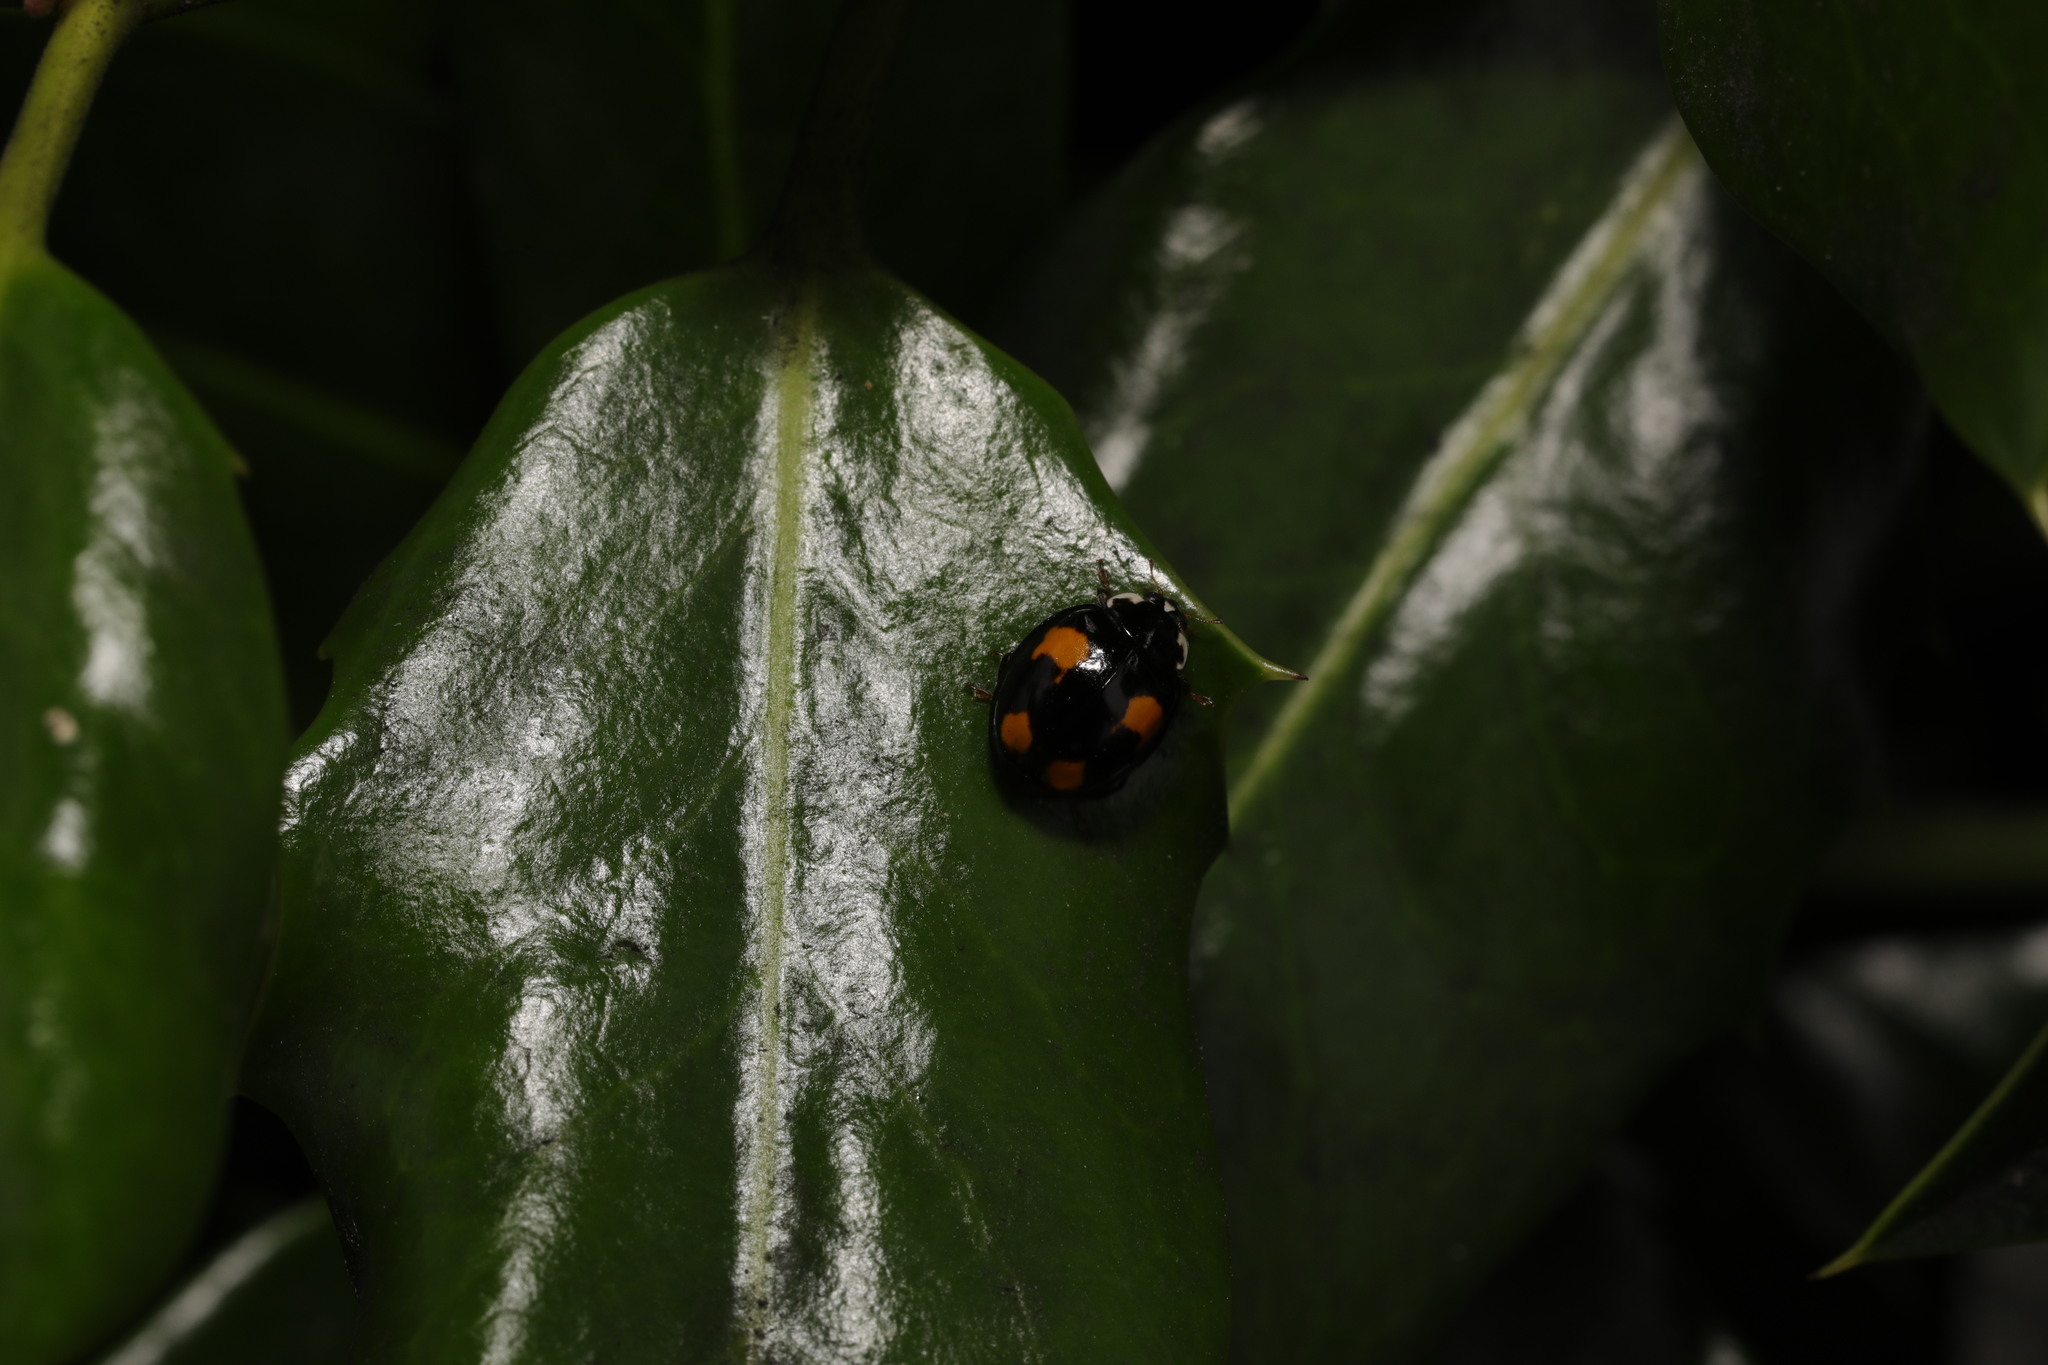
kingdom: Animalia
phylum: Arthropoda
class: Insecta
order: Coleoptera
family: Coccinellidae
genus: Harmonia
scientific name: Harmonia axyridis
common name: Harlequin ladybird
